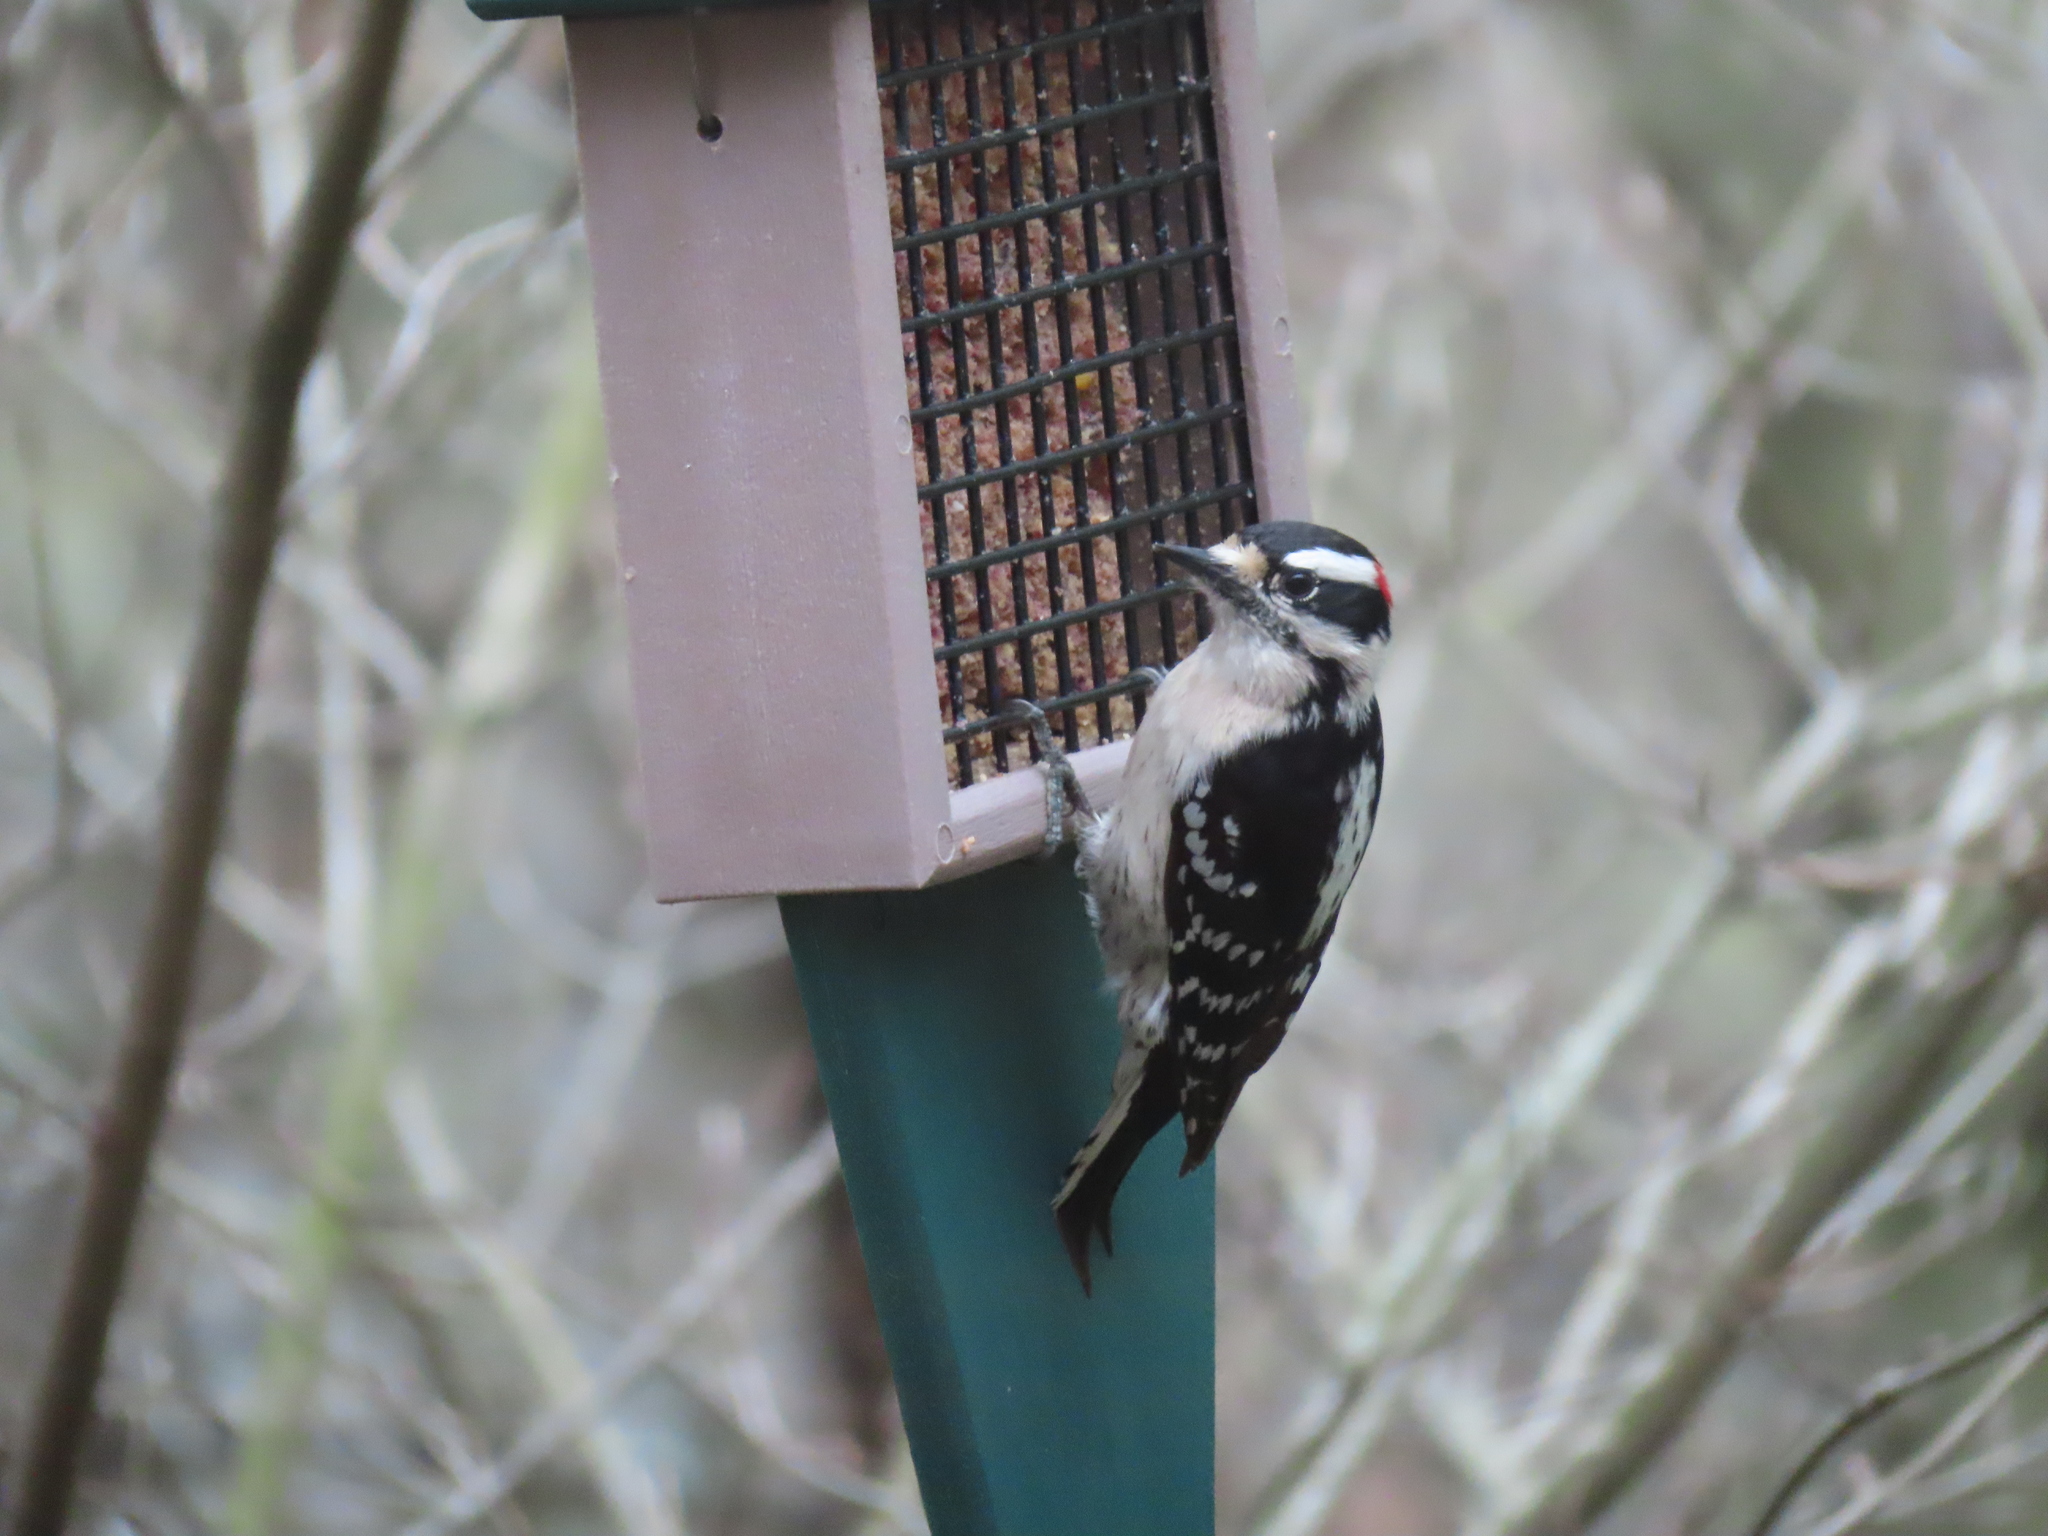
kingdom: Animalia
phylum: Chordata
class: Aves
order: Piciformes
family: Picidae
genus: Dryobates
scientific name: Dryobates pubescens
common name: Downy woodpecker
